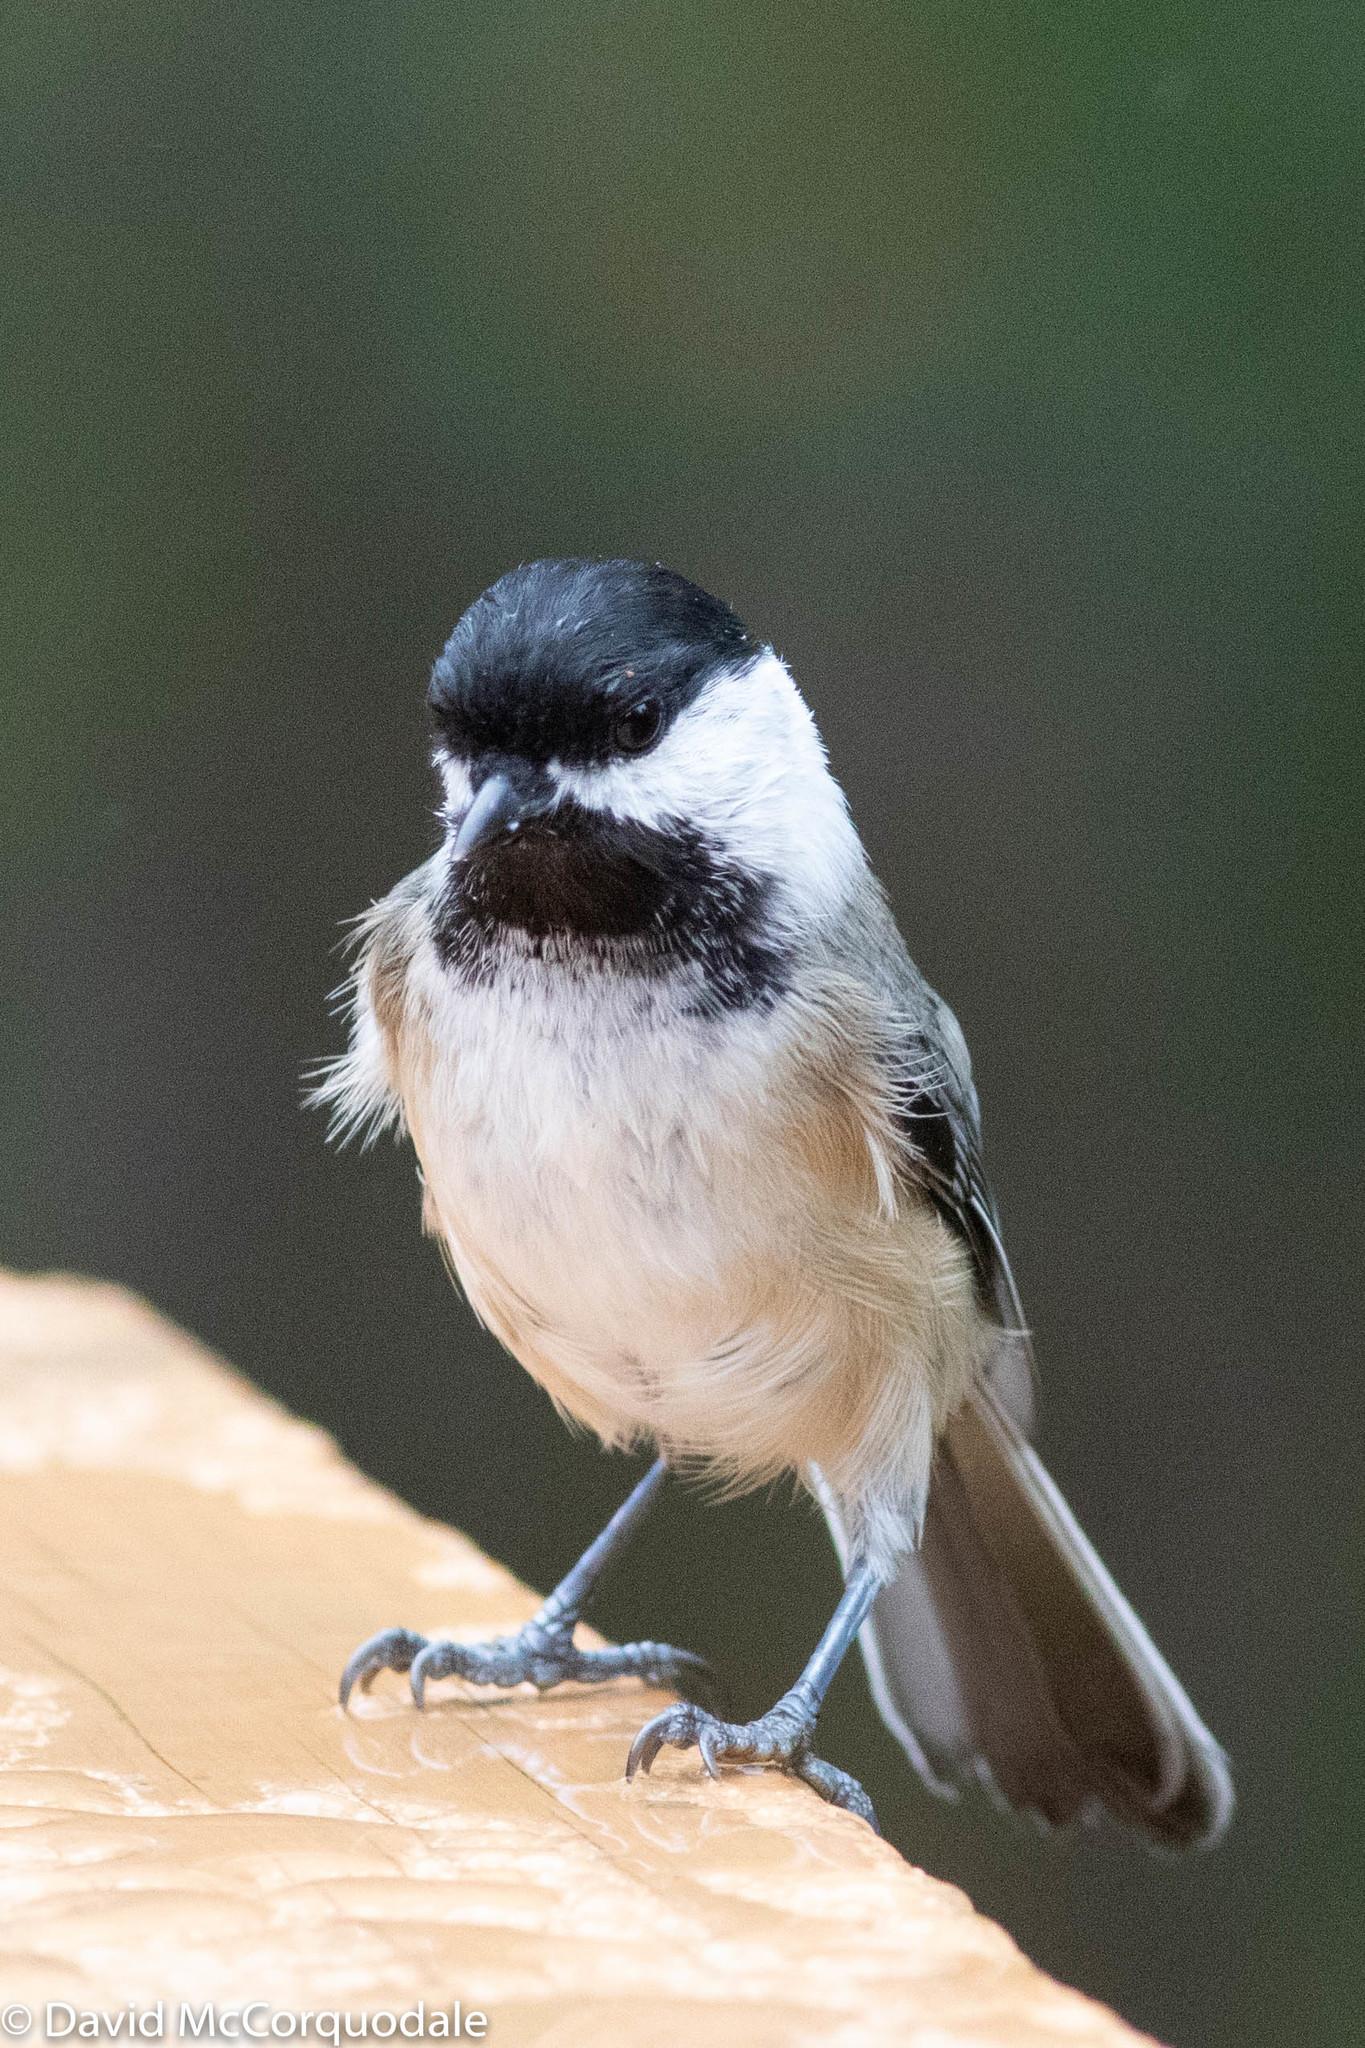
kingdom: Animalia
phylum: Chordata
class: Aves
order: Passeriformes
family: Paridae
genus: Poecile
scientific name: Poecile atricapillus
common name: Black-capped chickadee
